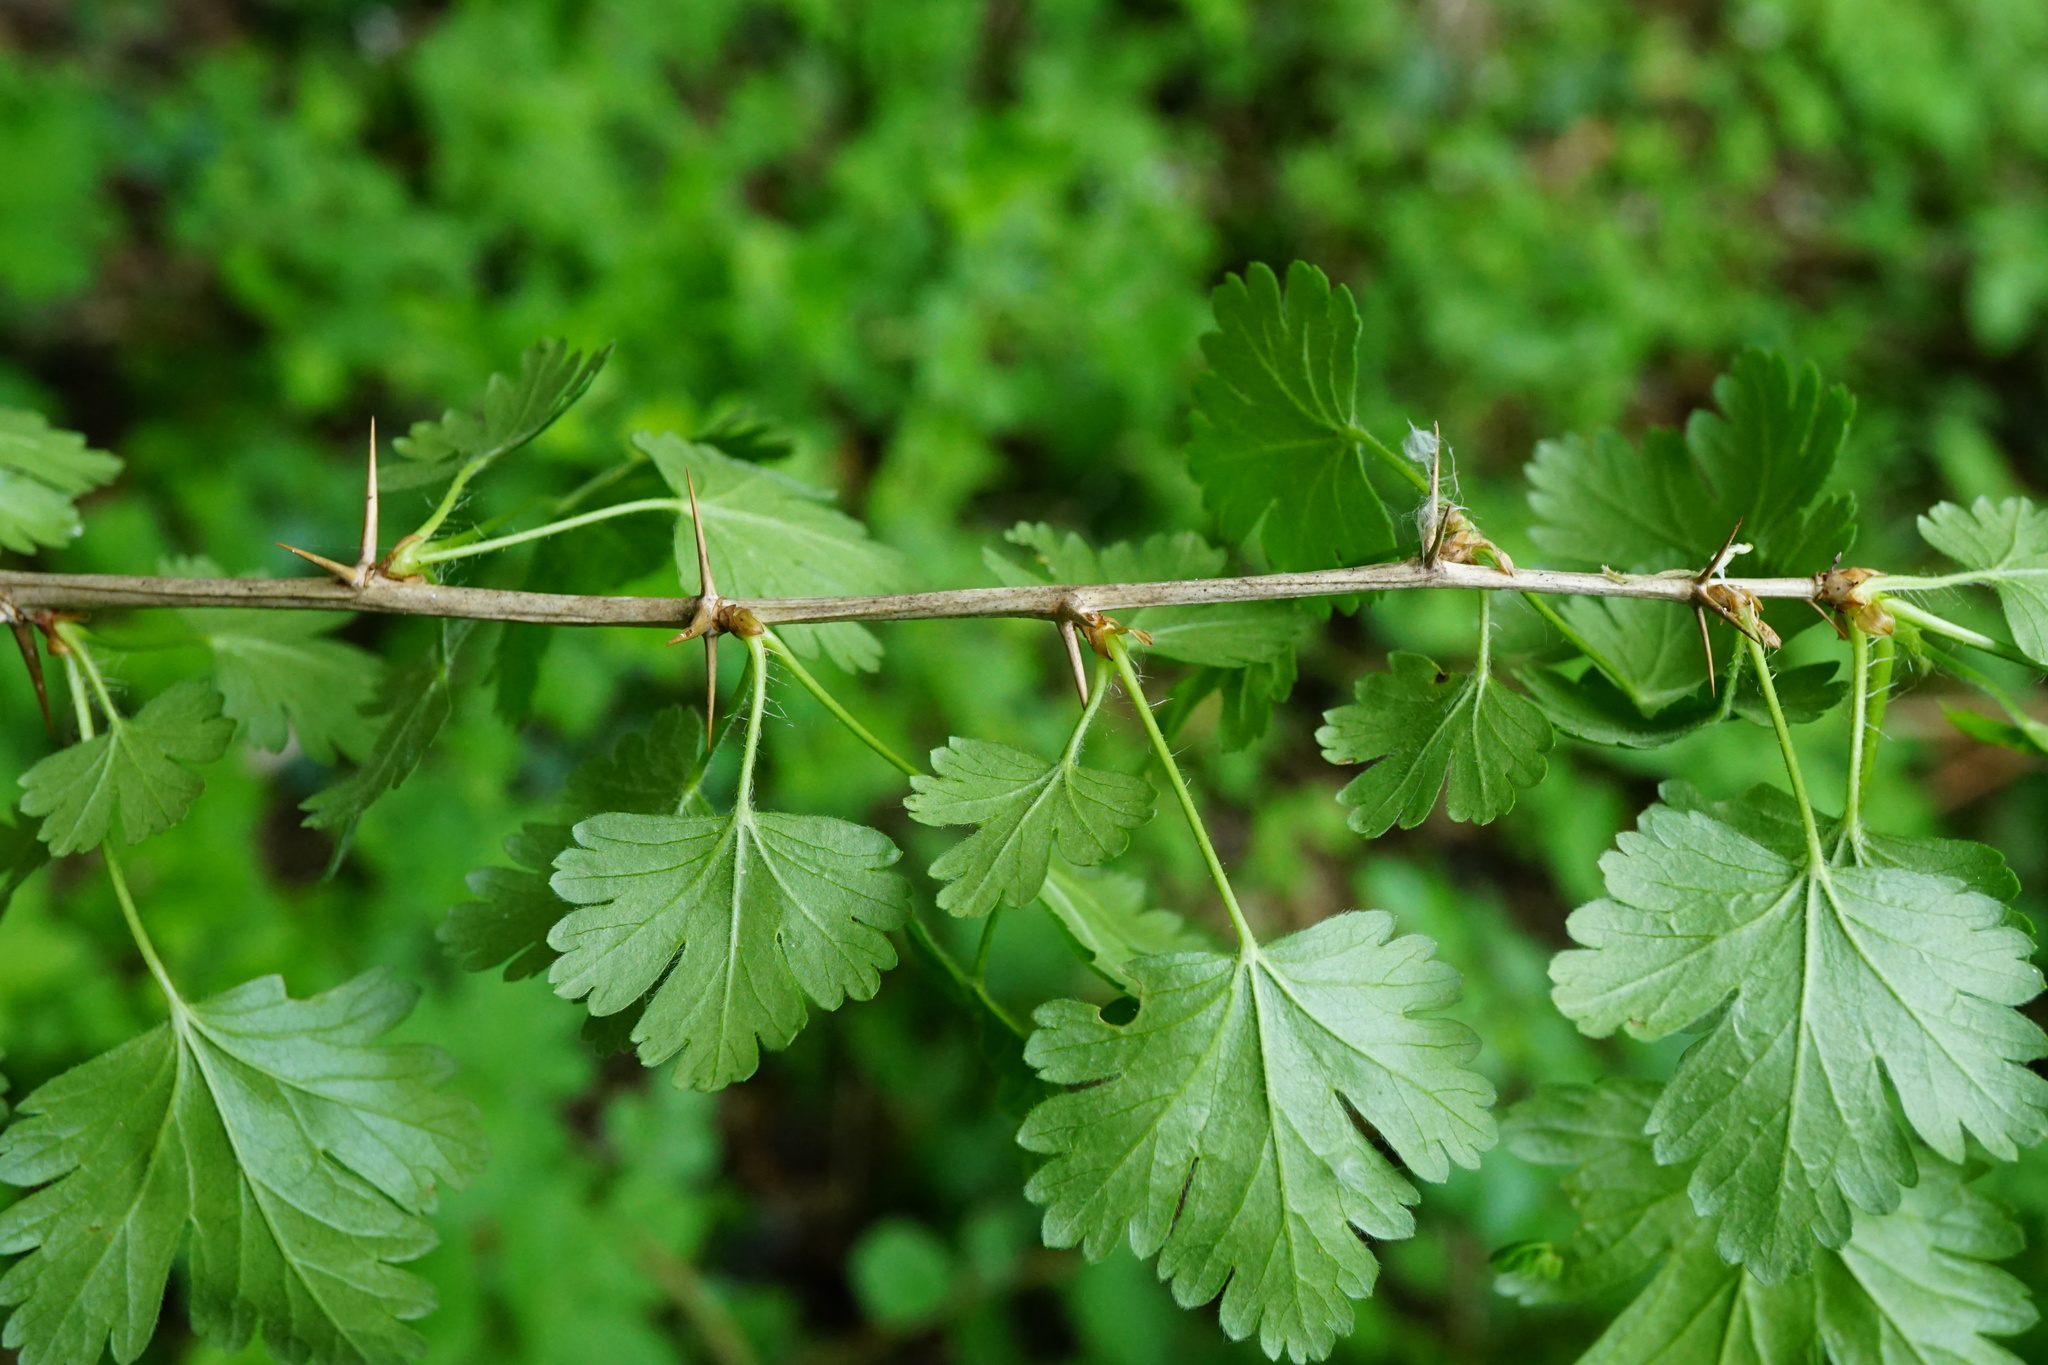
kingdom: Plantae
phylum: Tracheophyta
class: Magnoliopsida
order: Saxifragales
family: Grossulariaceae
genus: Ribes
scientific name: Ribes uva-crispa
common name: Gooseberry
